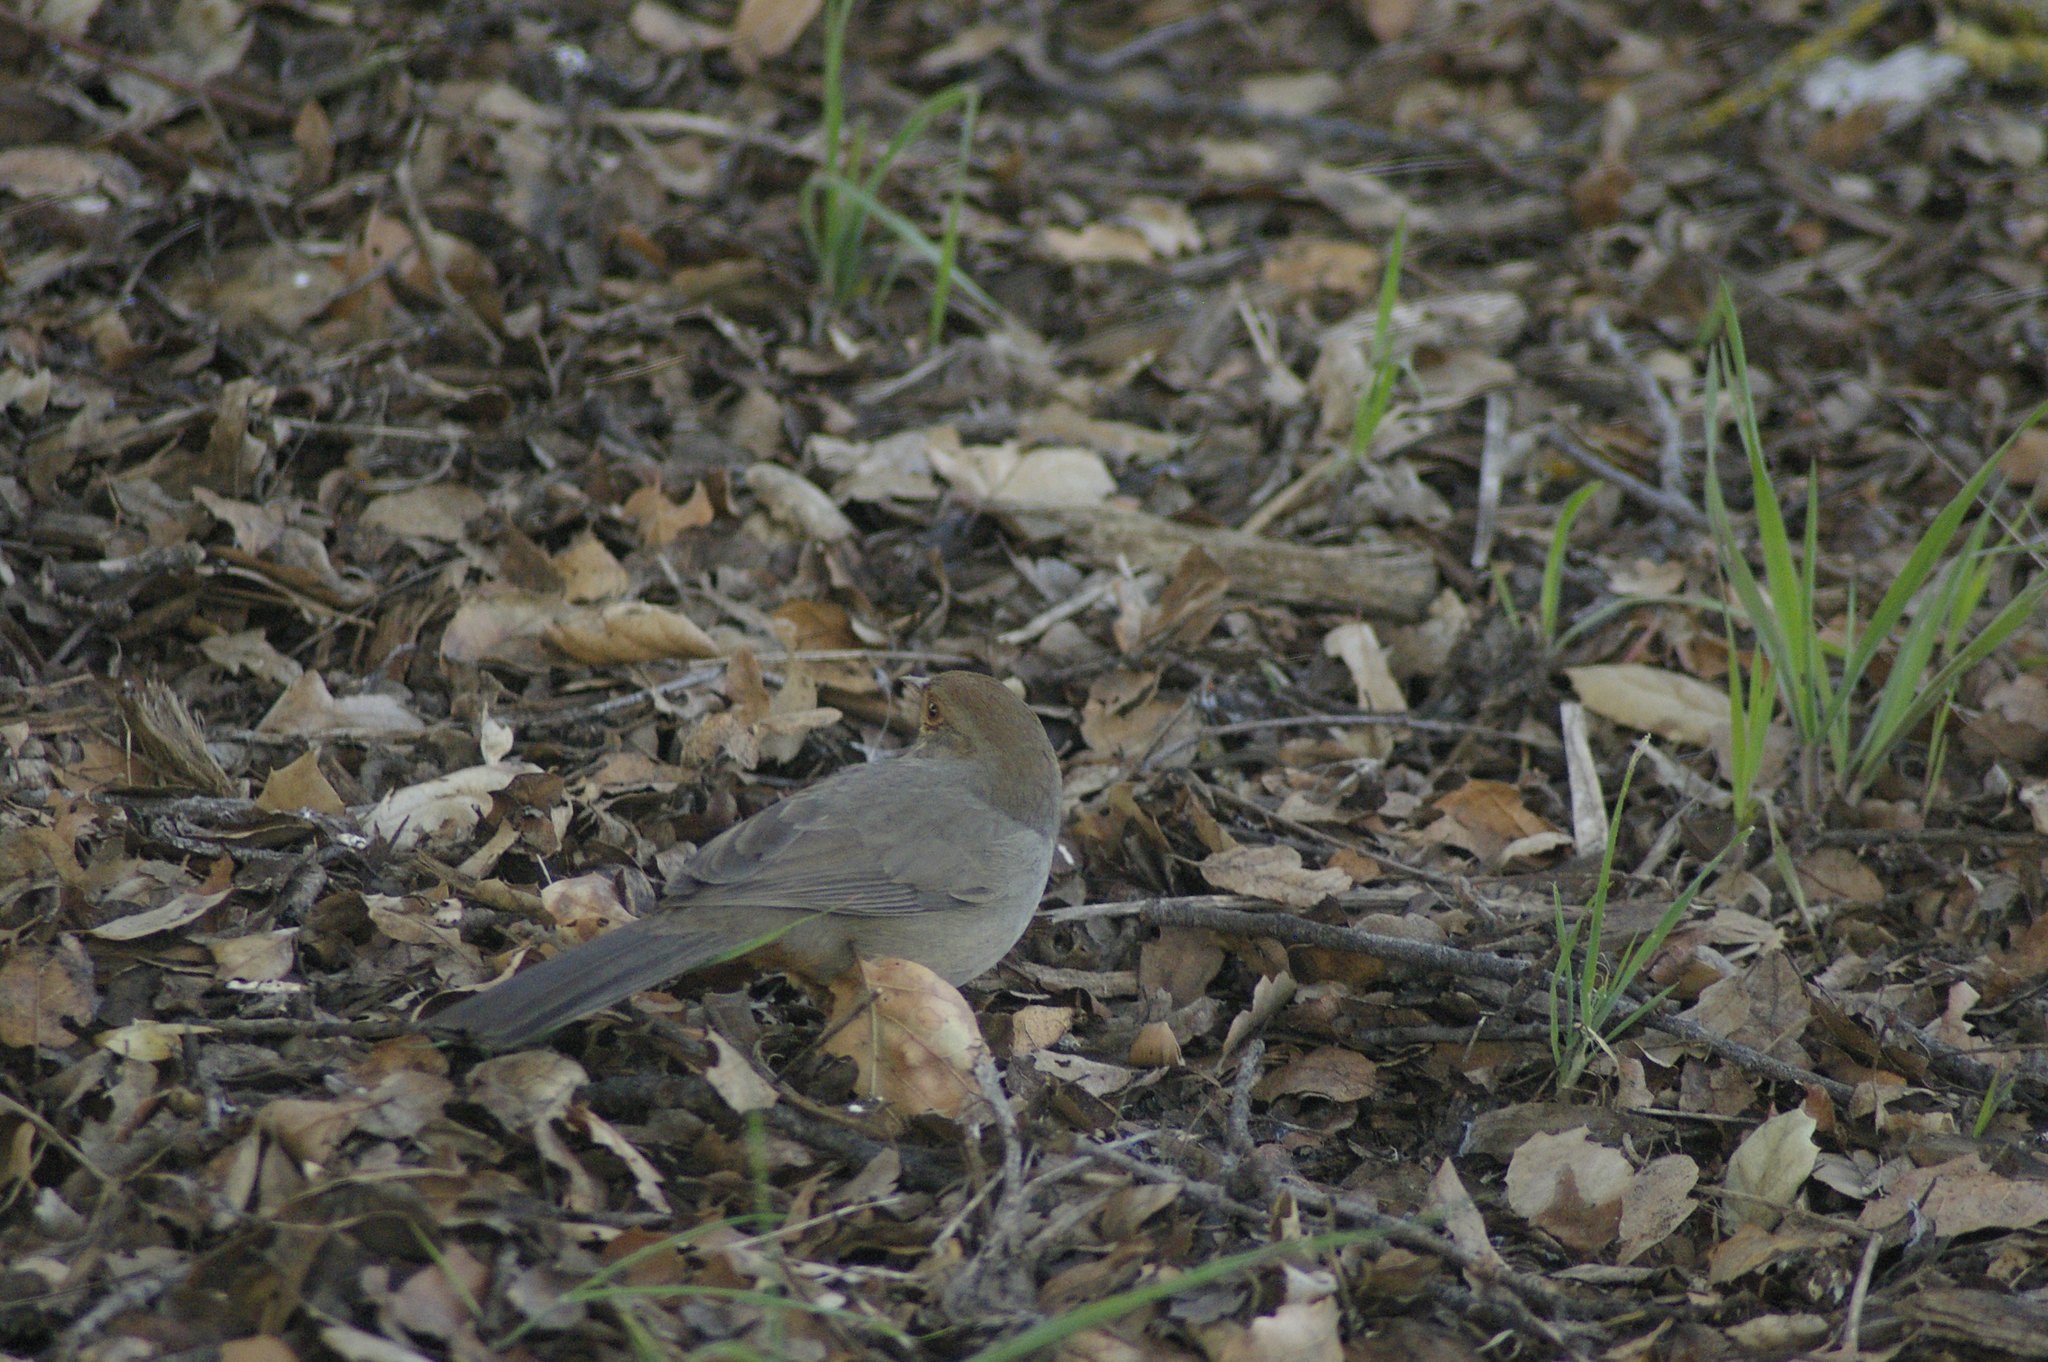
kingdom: Animalia
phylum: Chordata
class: Aves
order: Passeriformes
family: Passerellidae
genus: Melozone
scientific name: Melozone crissalis
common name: California towhee
